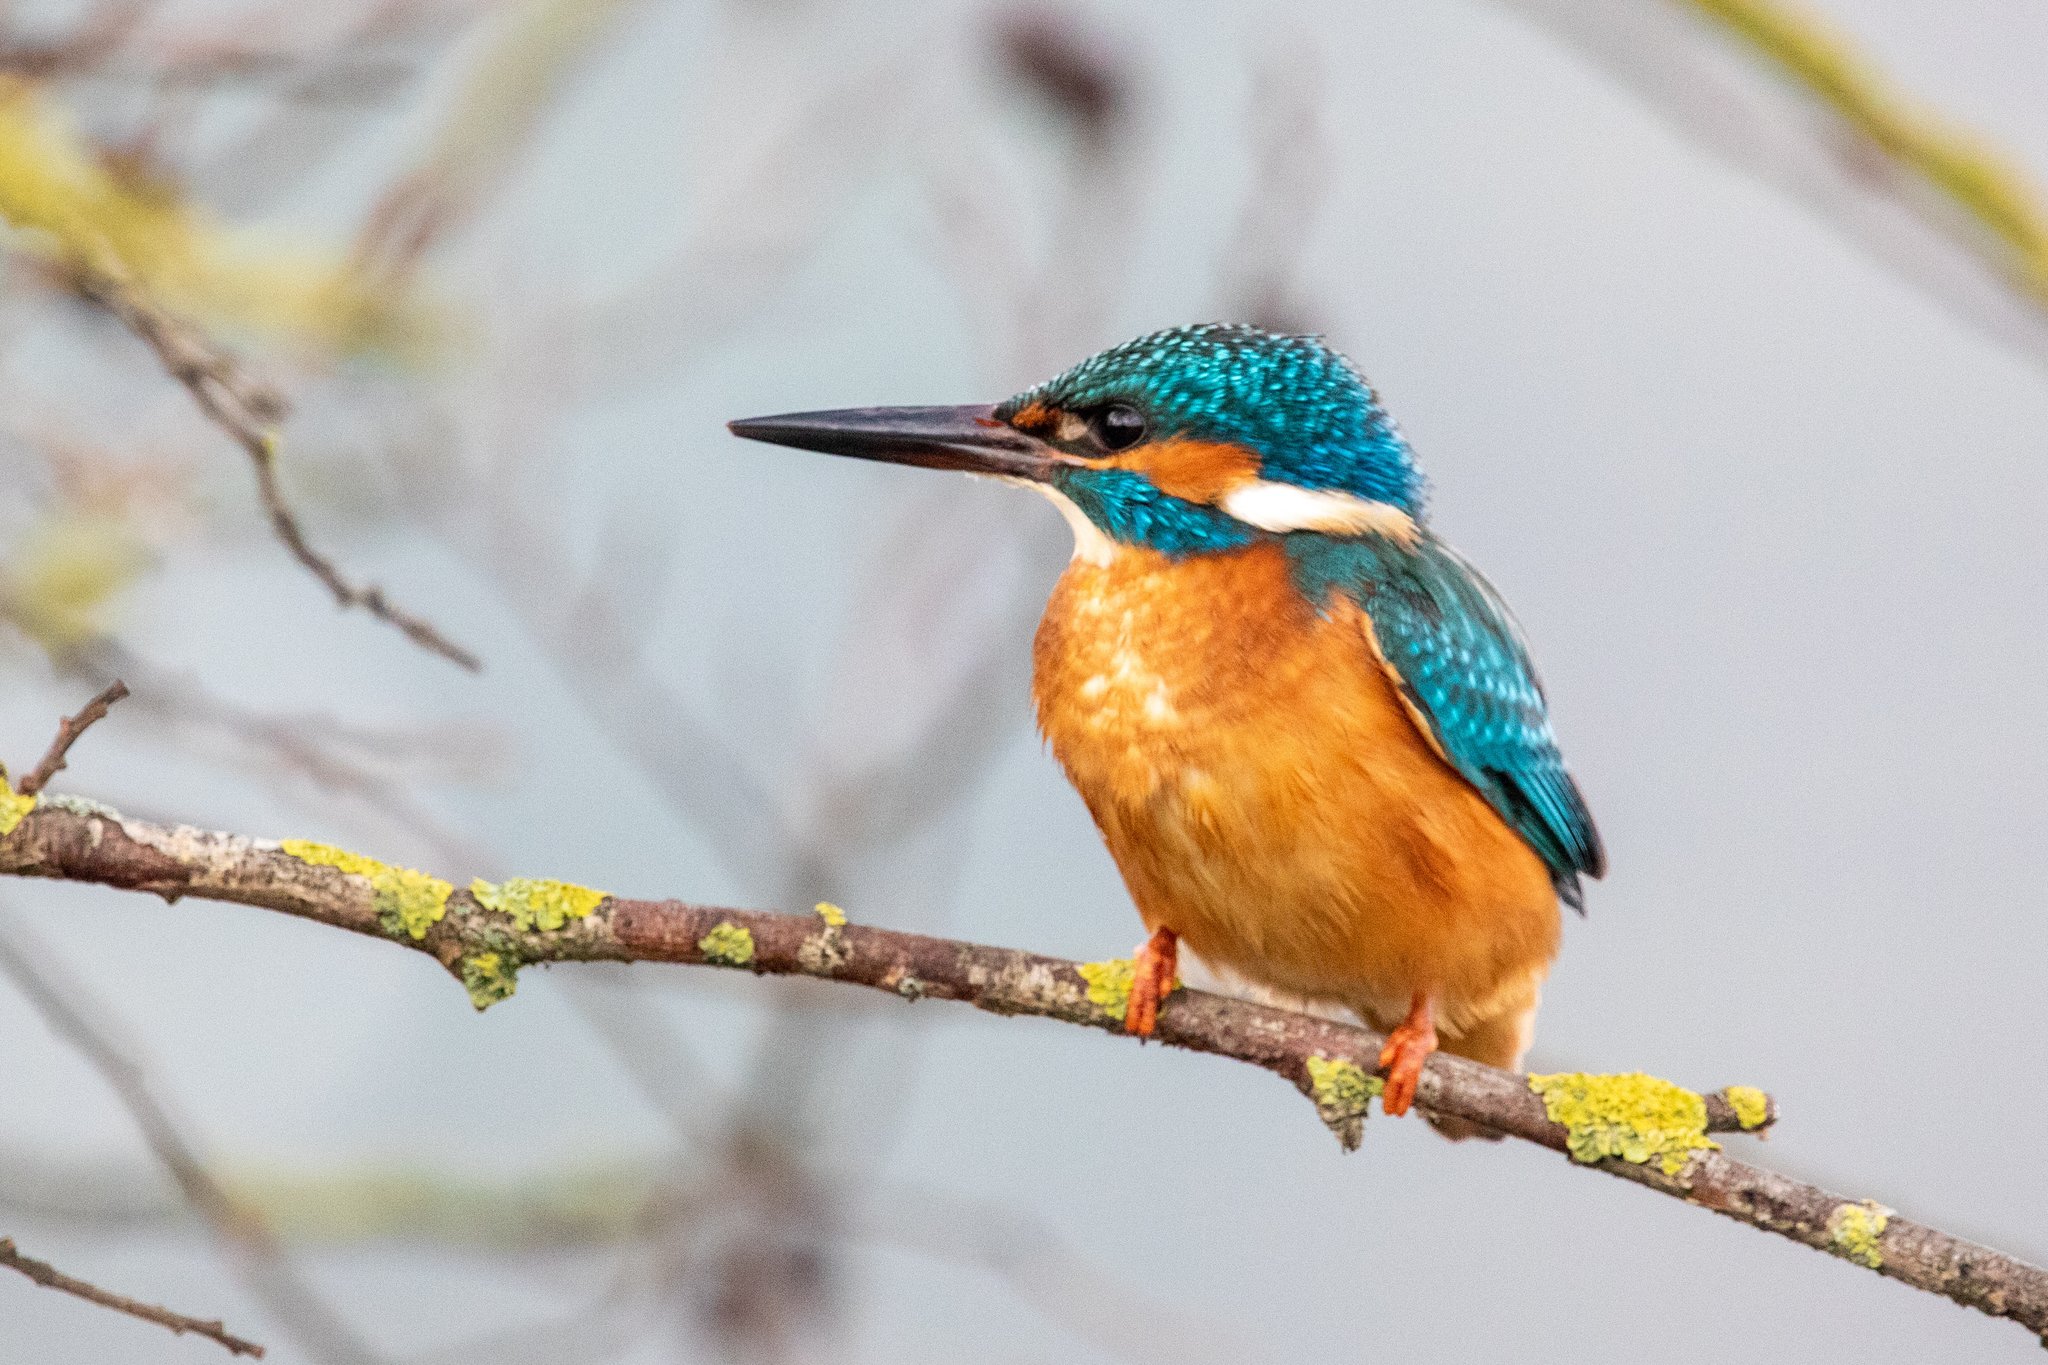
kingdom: Animalia
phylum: Chordata
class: Aves
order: Coraciiformes
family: Alcedinidae
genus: Alcedo
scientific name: Alcedo atthis
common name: Common kingfisher
